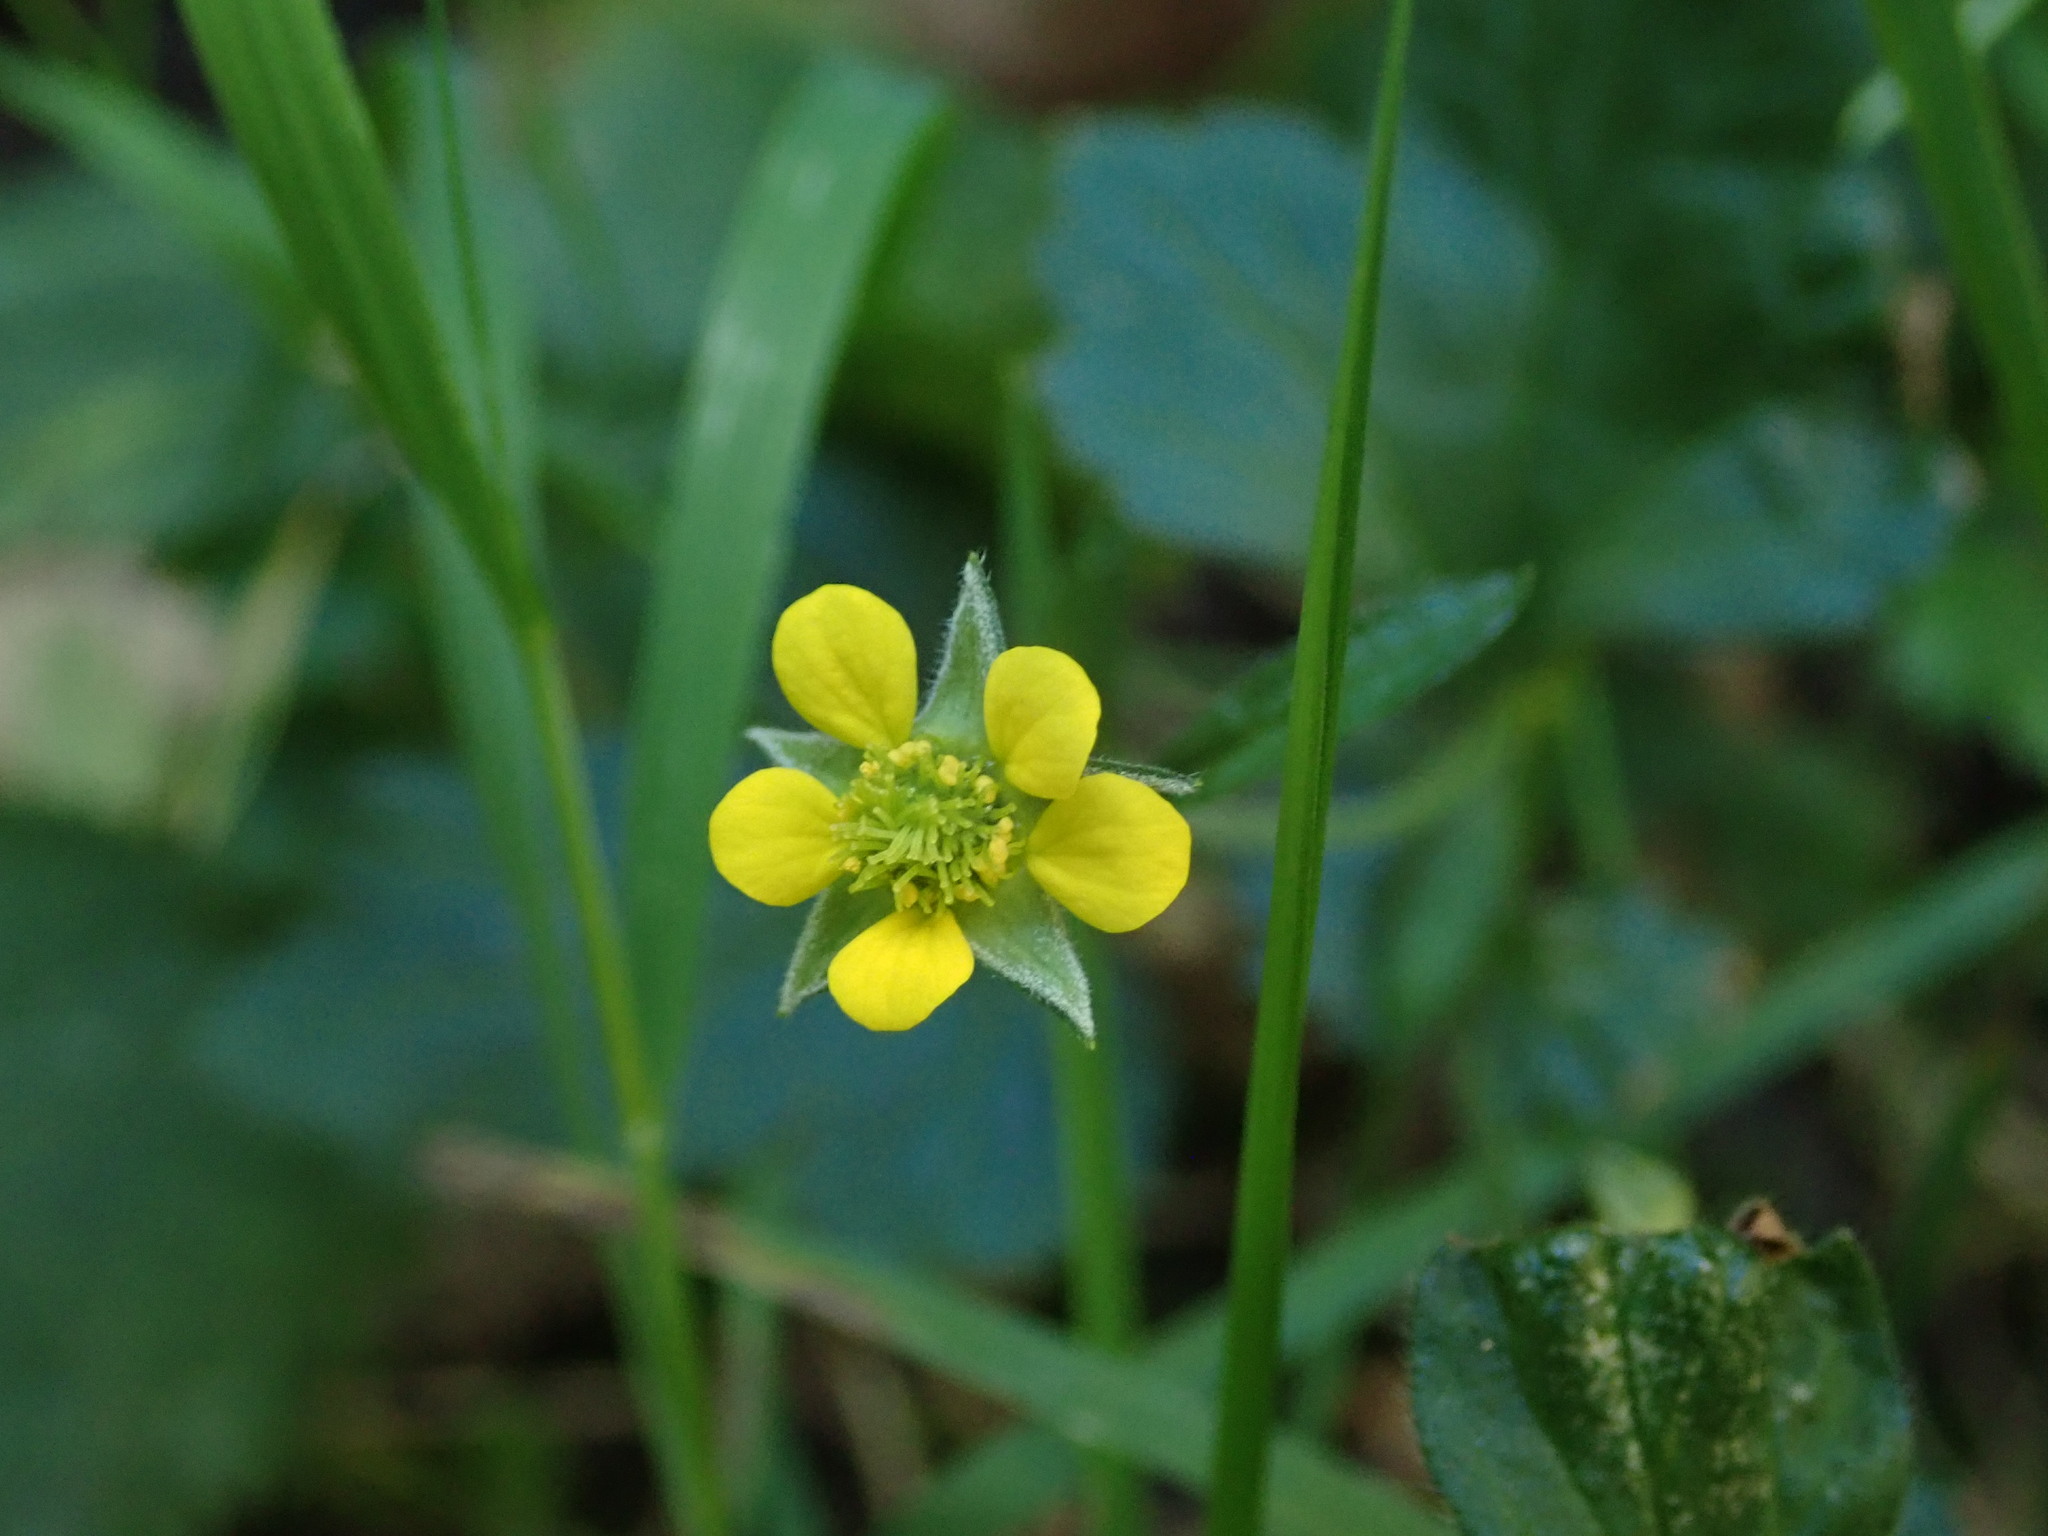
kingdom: Plantae
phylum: Tracheophyta
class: Magnoliopsida
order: Rosales
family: Rosaceae
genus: Geum
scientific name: Geum urbanum
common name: Wood avens
